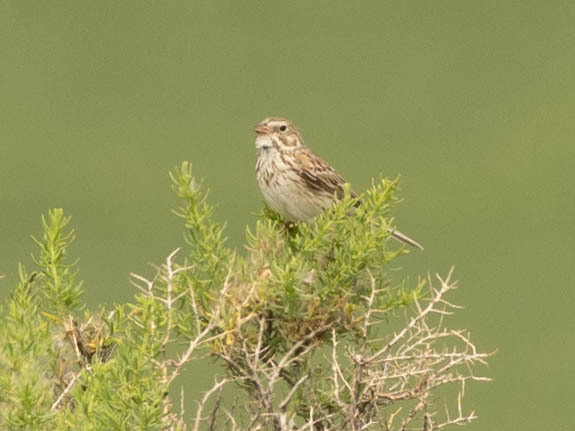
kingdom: Animalia
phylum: Chordata
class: Aves
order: Passeriformes
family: Passerellidae
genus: Pooecetes
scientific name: Pooecetes gramineus
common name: Vesper sparrow
